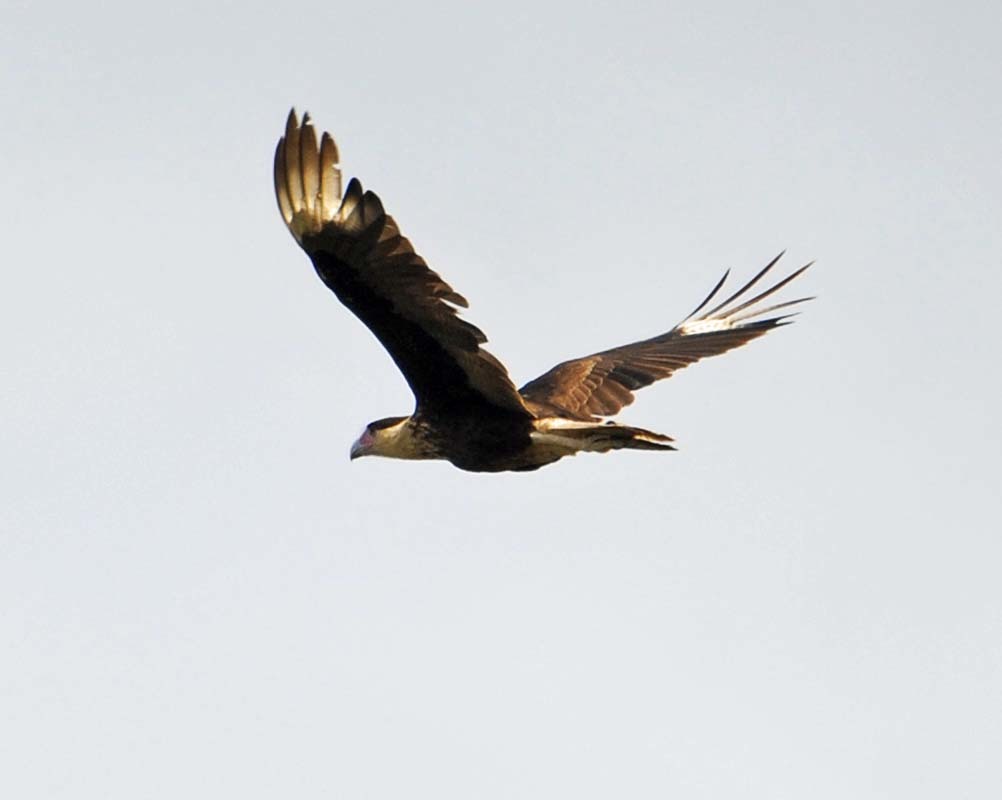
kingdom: Animalia
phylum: Chordata
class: Aves
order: Falconiformes
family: Falconidae
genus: Caracara
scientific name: Caracara plancus
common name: Southern caracara
